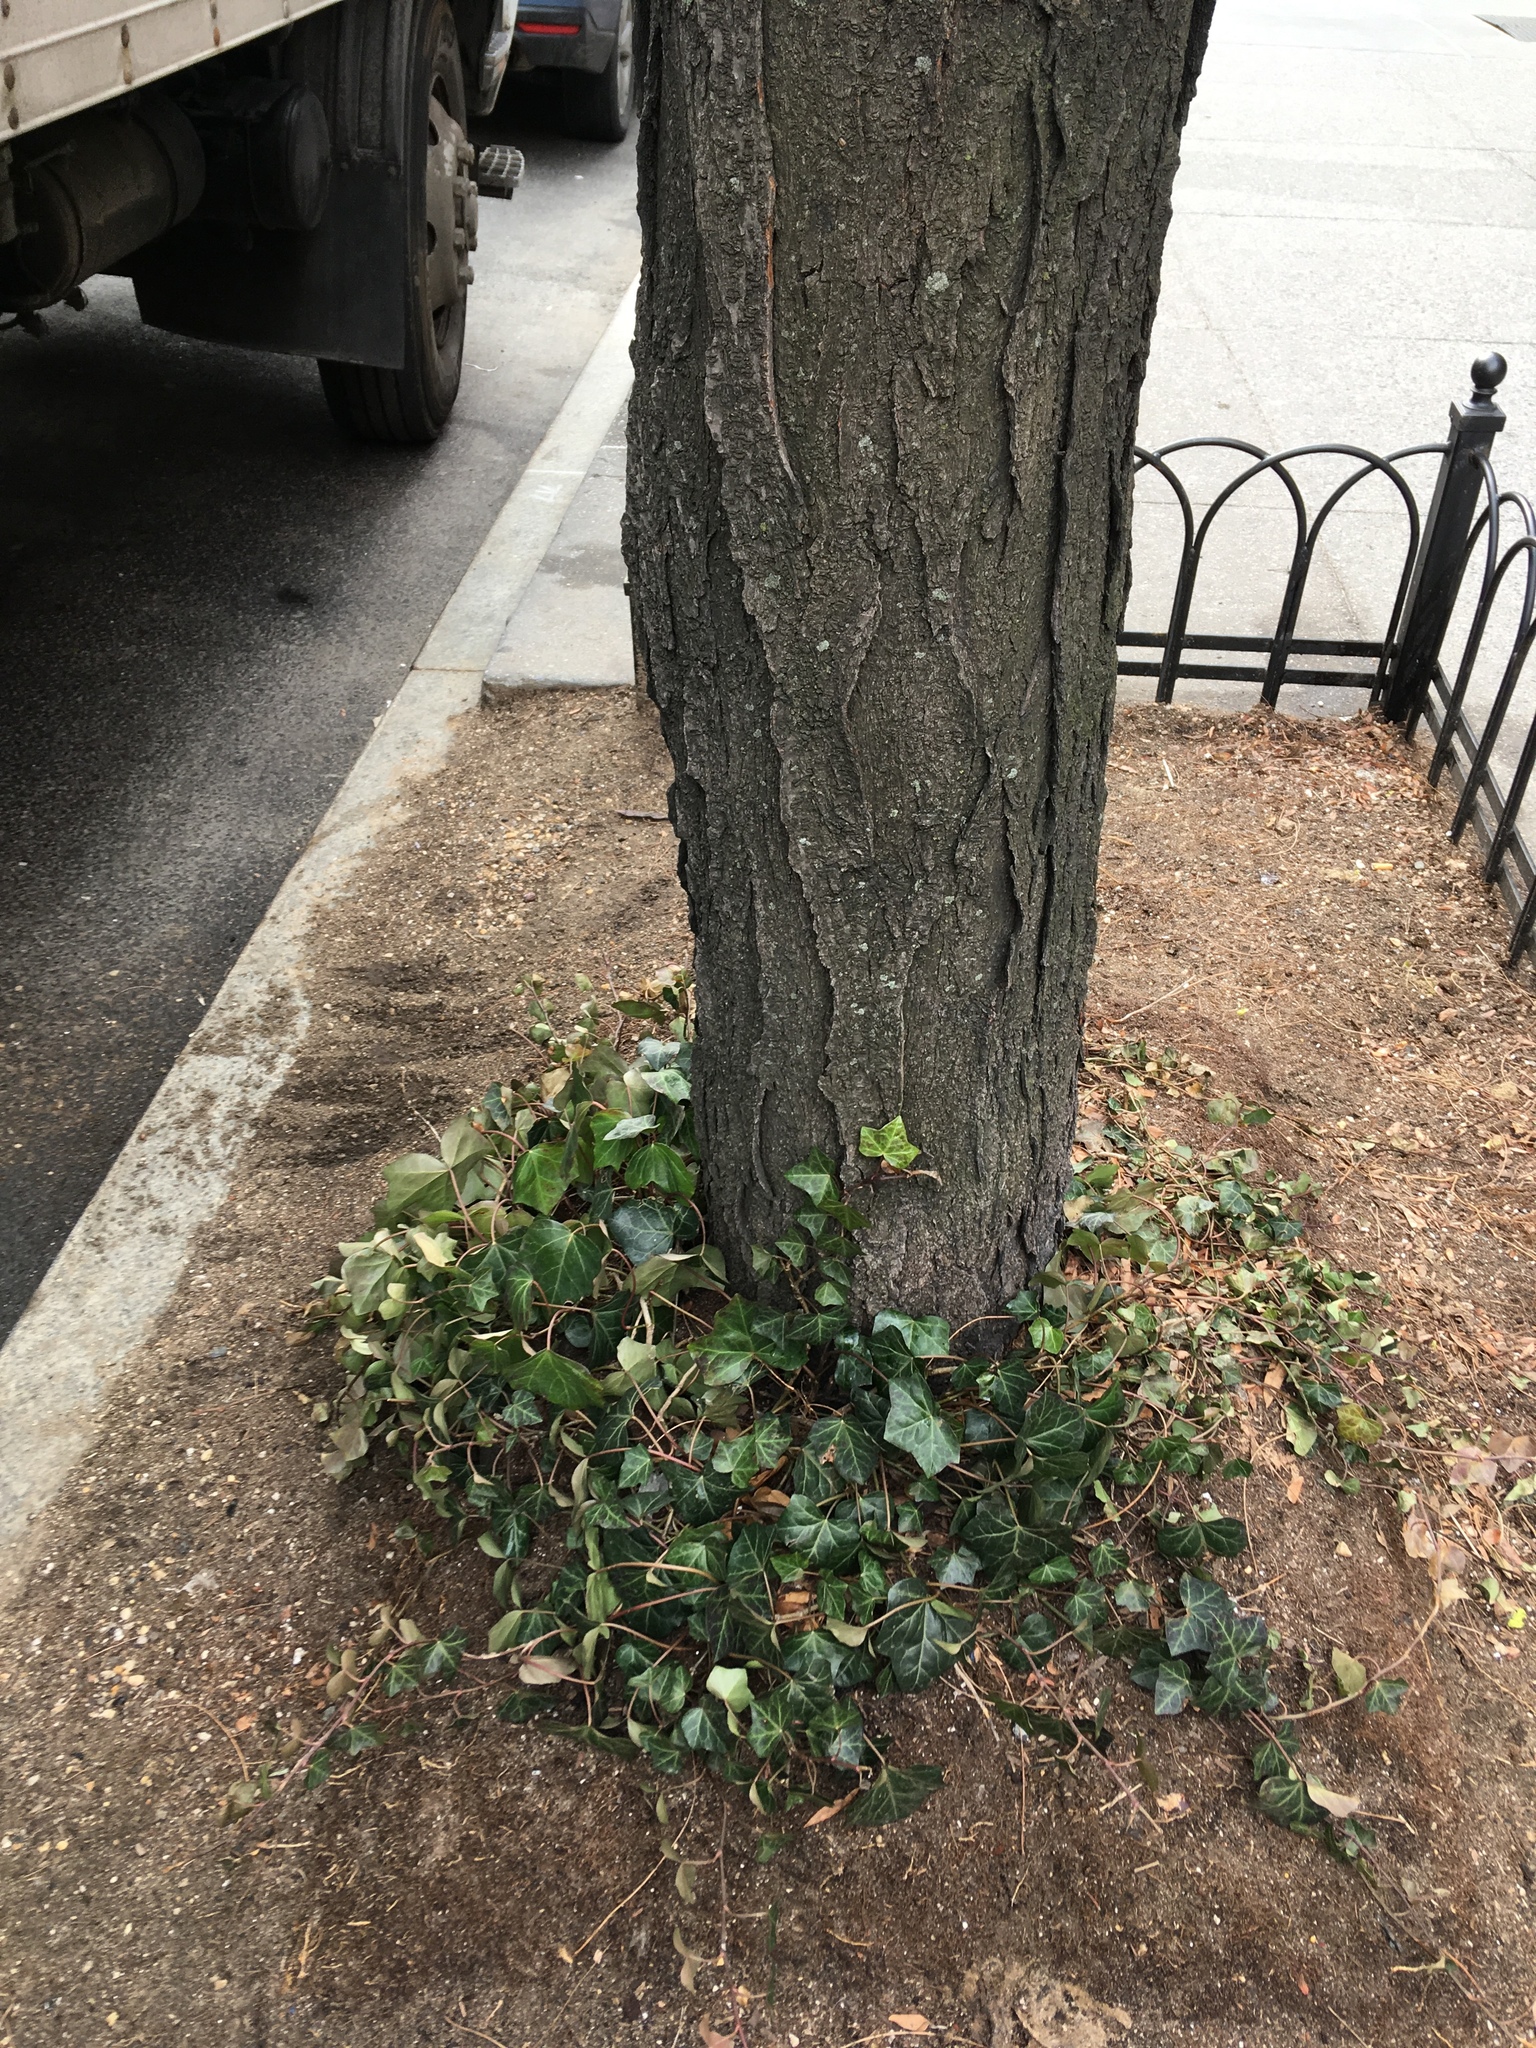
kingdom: Plantae
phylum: Tracheophyta
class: Magnoliopsida
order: Apiales
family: Araliaceae
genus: Hedera
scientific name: Hedera helix
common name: Ivy
